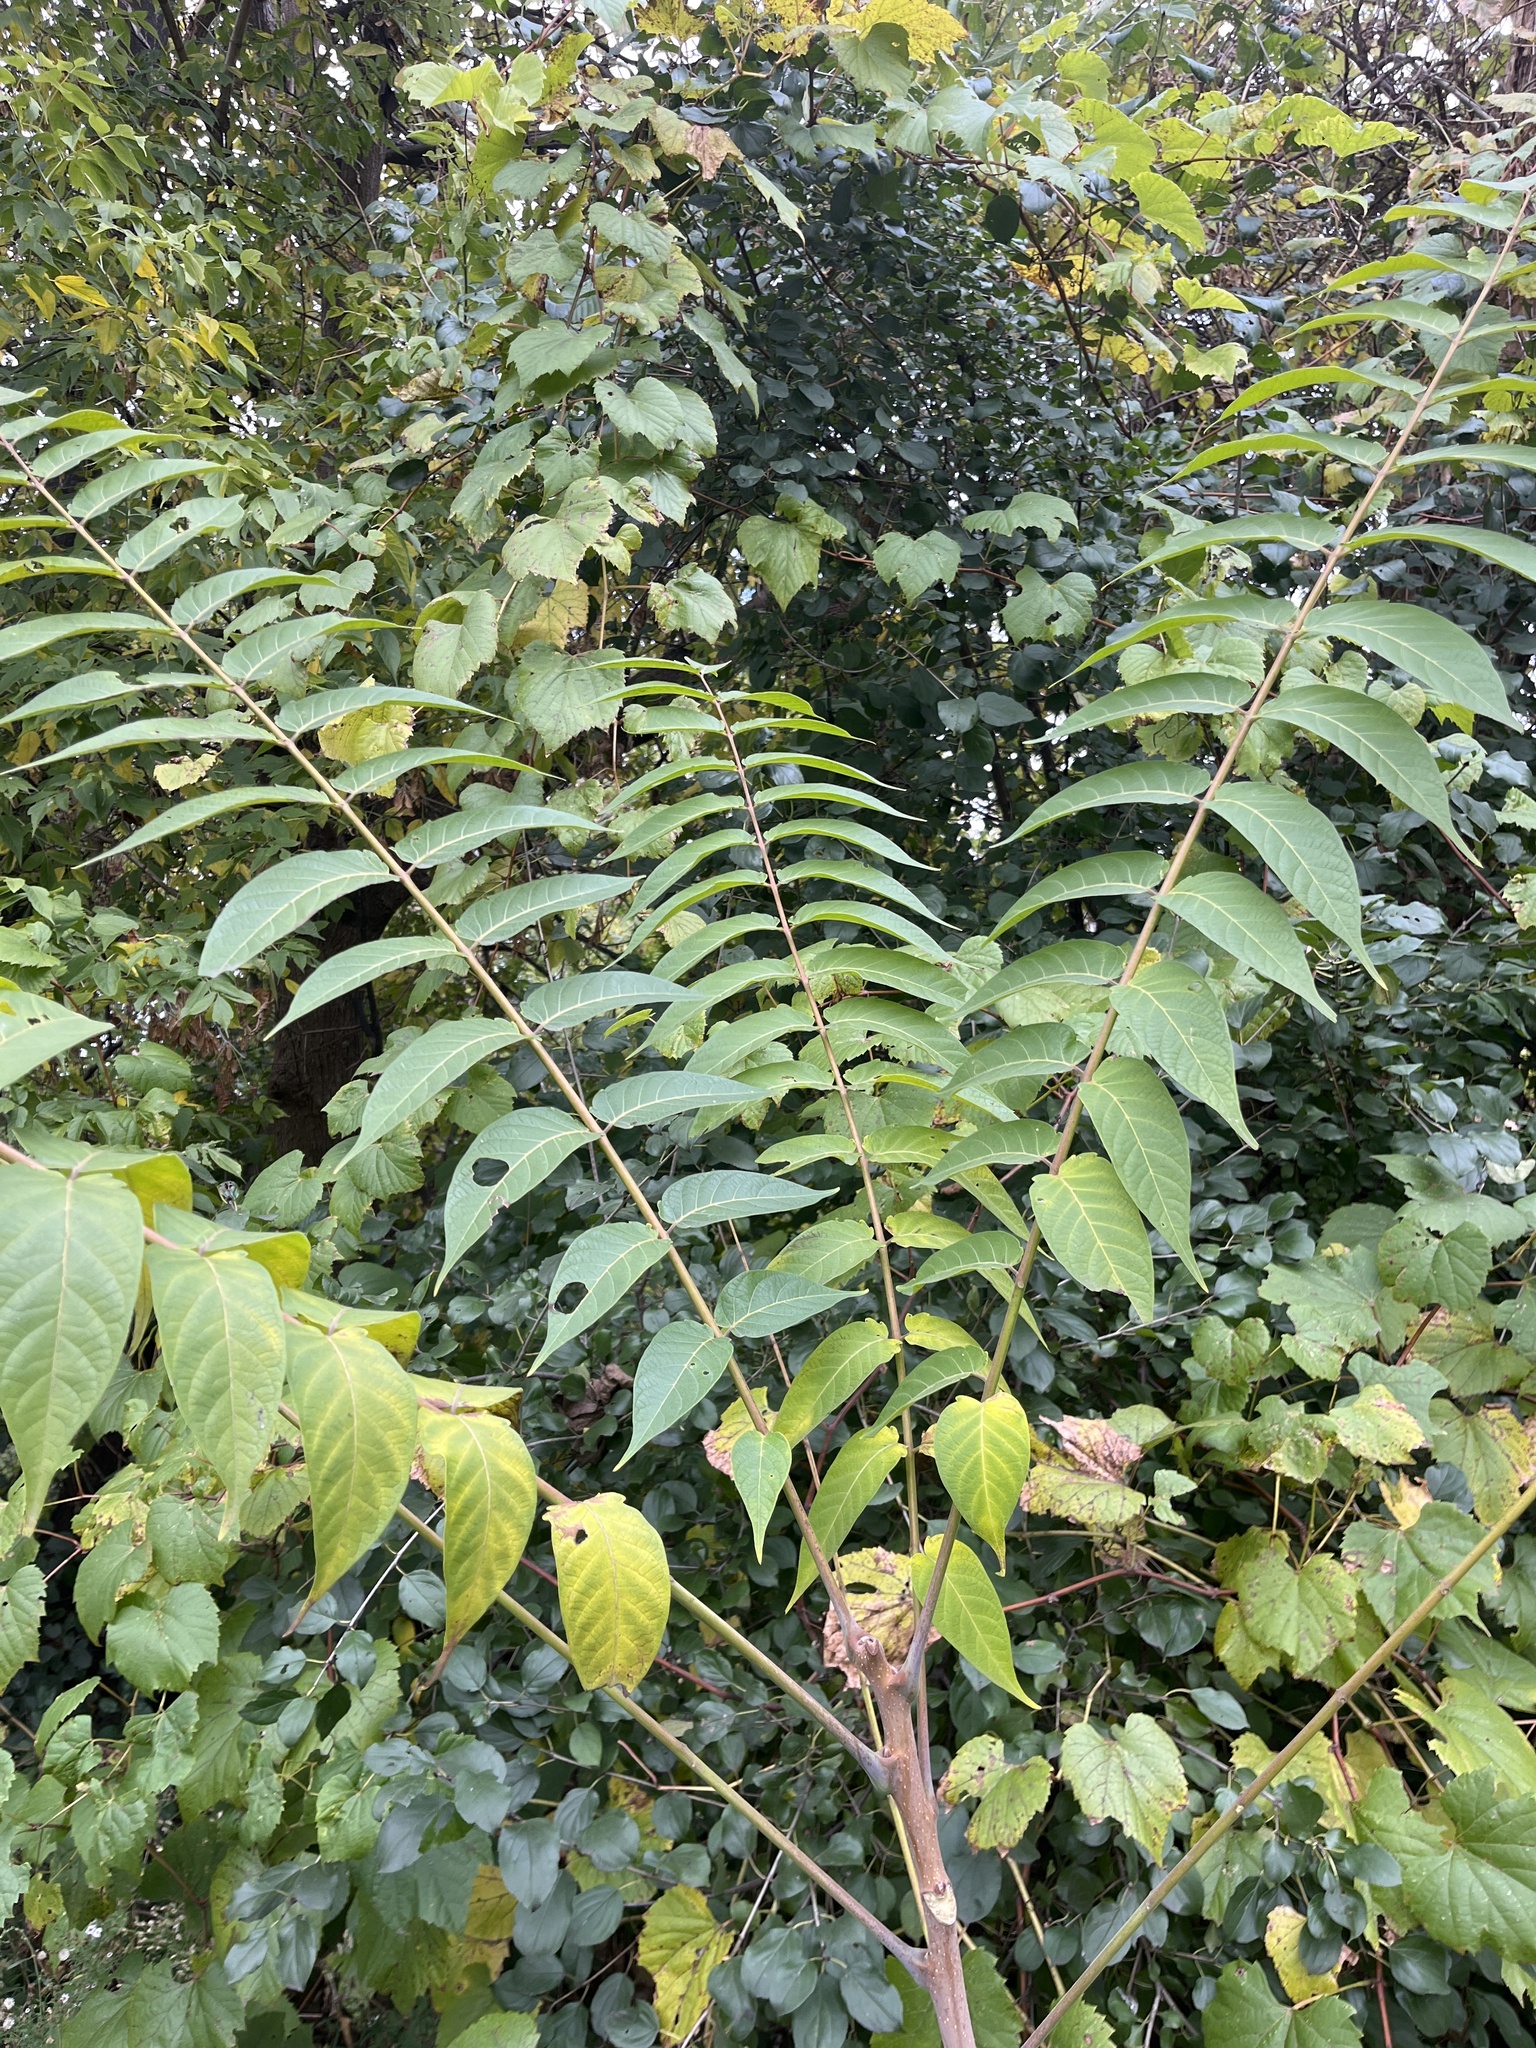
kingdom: Plantae
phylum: Tracheophyta
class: Magnoliopsida
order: Sapindales
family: Simaroubaceae
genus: Ailanthus
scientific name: Ailanthus altissima
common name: Tree-of-heaven
